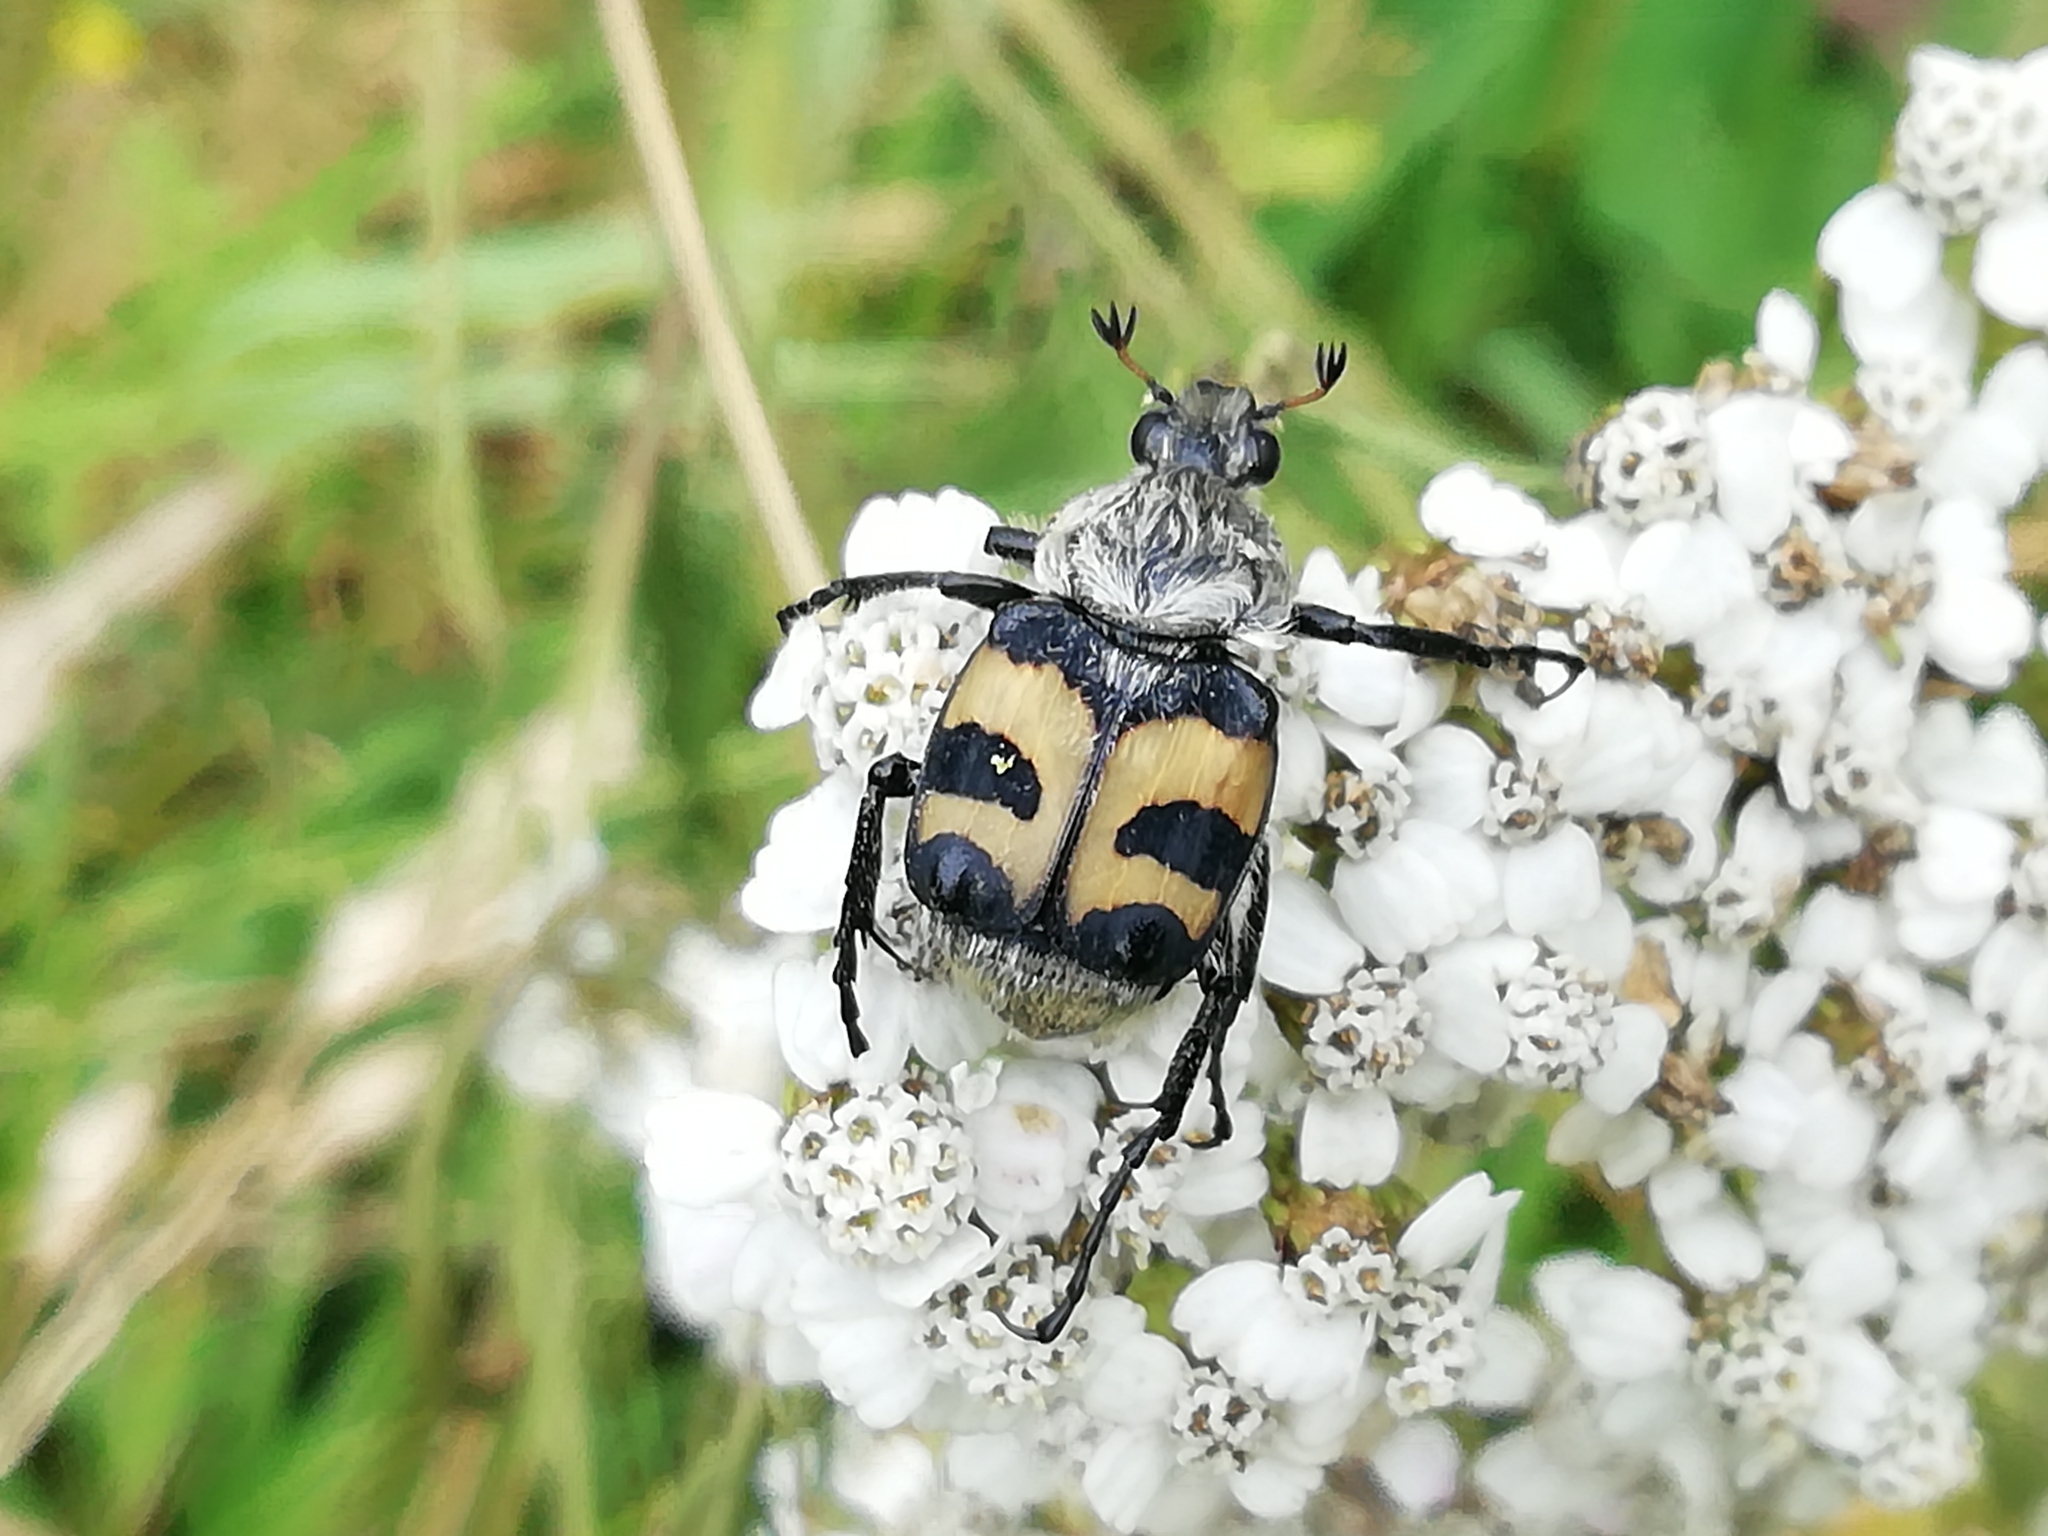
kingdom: Animalia
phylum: Arthropoda
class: Insecta
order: Coleoptera
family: Scarabaeidae
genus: Trichius
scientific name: Trichius fasciatus
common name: Bee beetle
